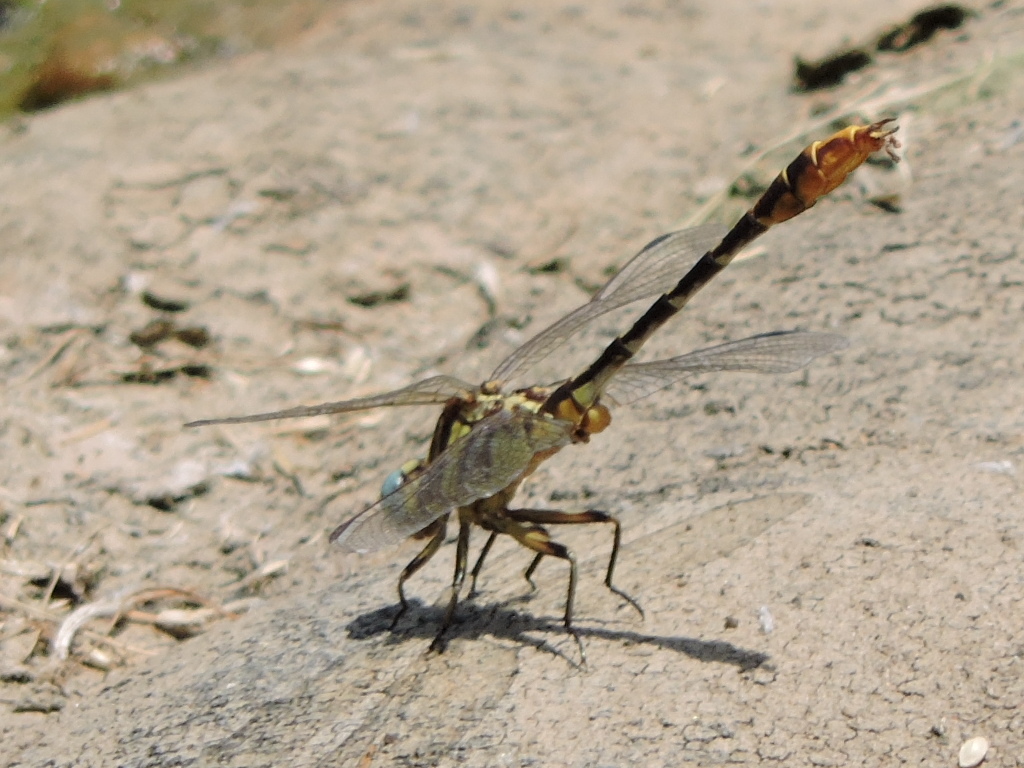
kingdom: Animalia
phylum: Arthropoda
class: Insecta
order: Odonata
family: Gomphidae
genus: Phanogomphus
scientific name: Phanogomphus militaris
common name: Sulphur-tipped clubtail
